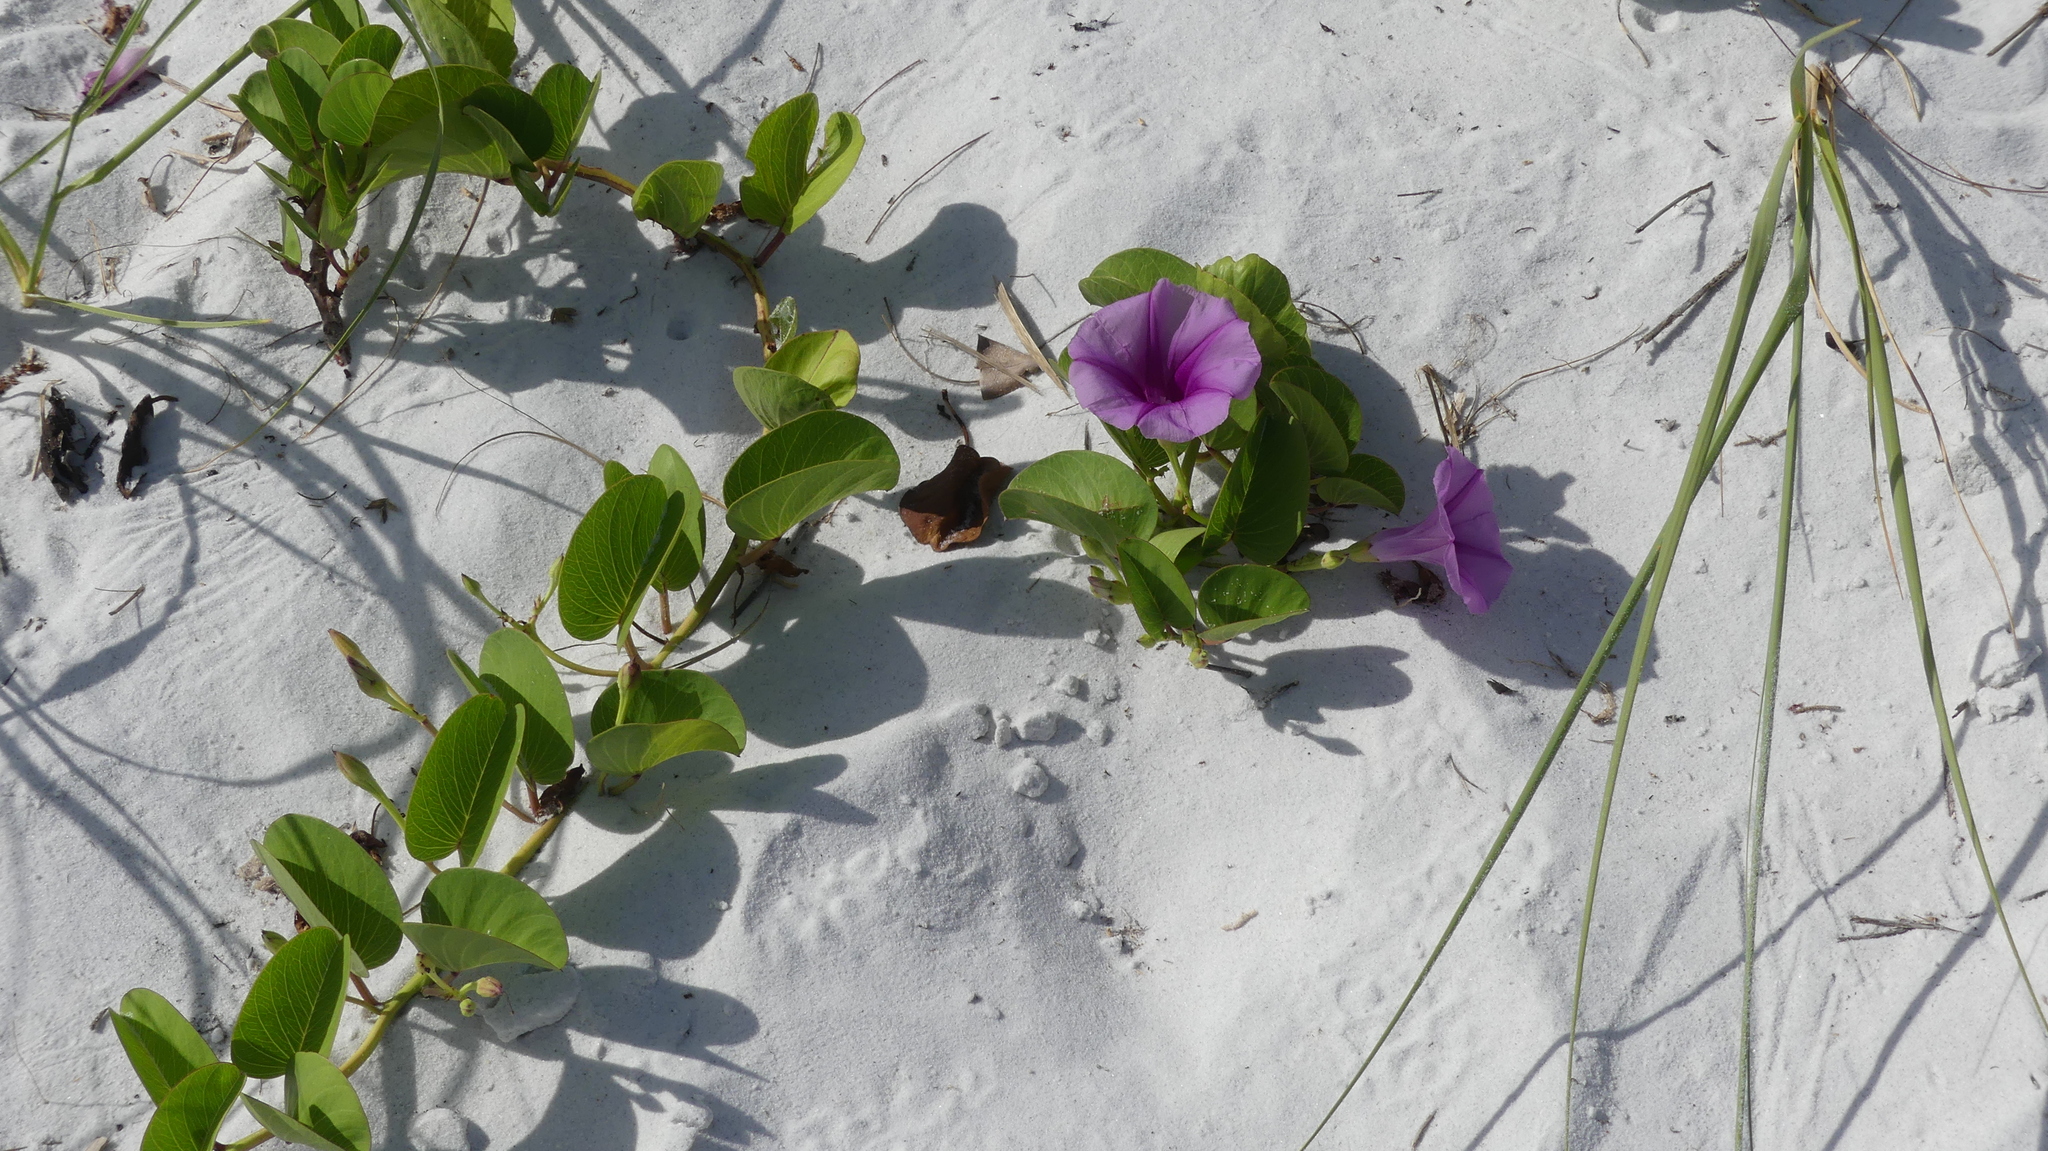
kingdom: Plantae
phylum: Tracheophyta
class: Magnoliopsida
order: Solanales
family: Convolvulaceae
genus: Ipomoea
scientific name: Ipomoea pes-caprae
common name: Beach morning glory
